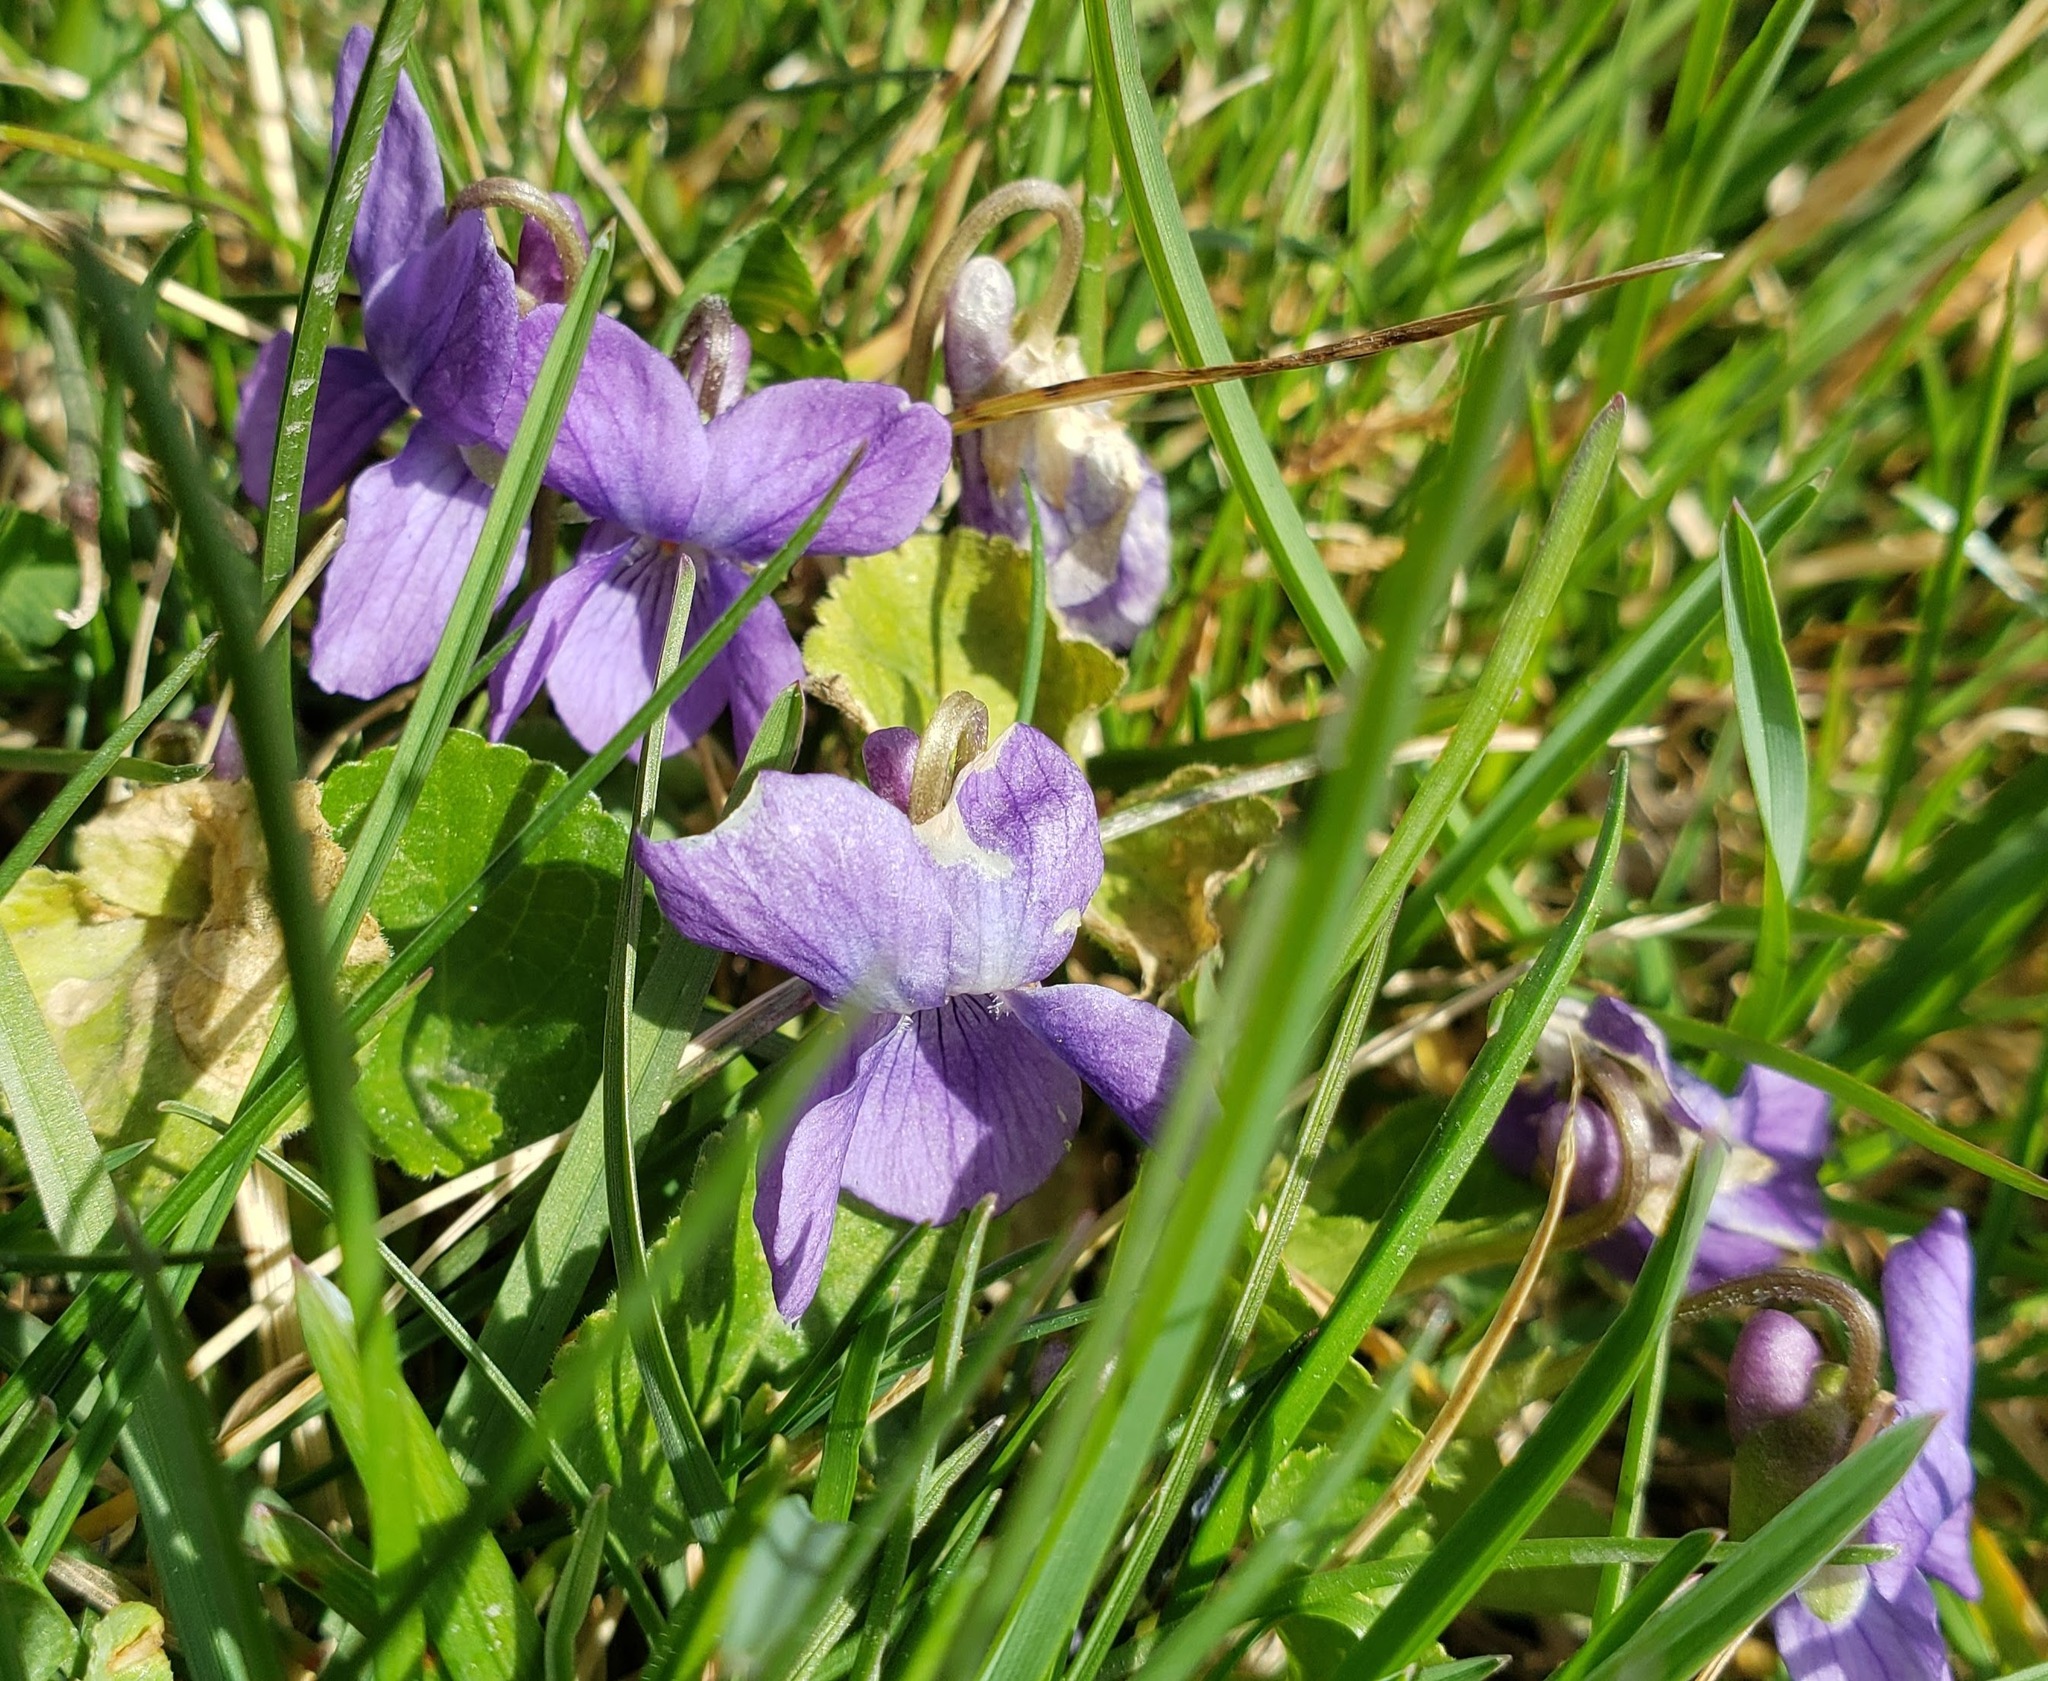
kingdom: Plantae
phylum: Tracheophyta
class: Magnoliopsida
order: Malpighiales
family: Violaceae
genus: Viola
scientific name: Viola odorata
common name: Sweet violet
